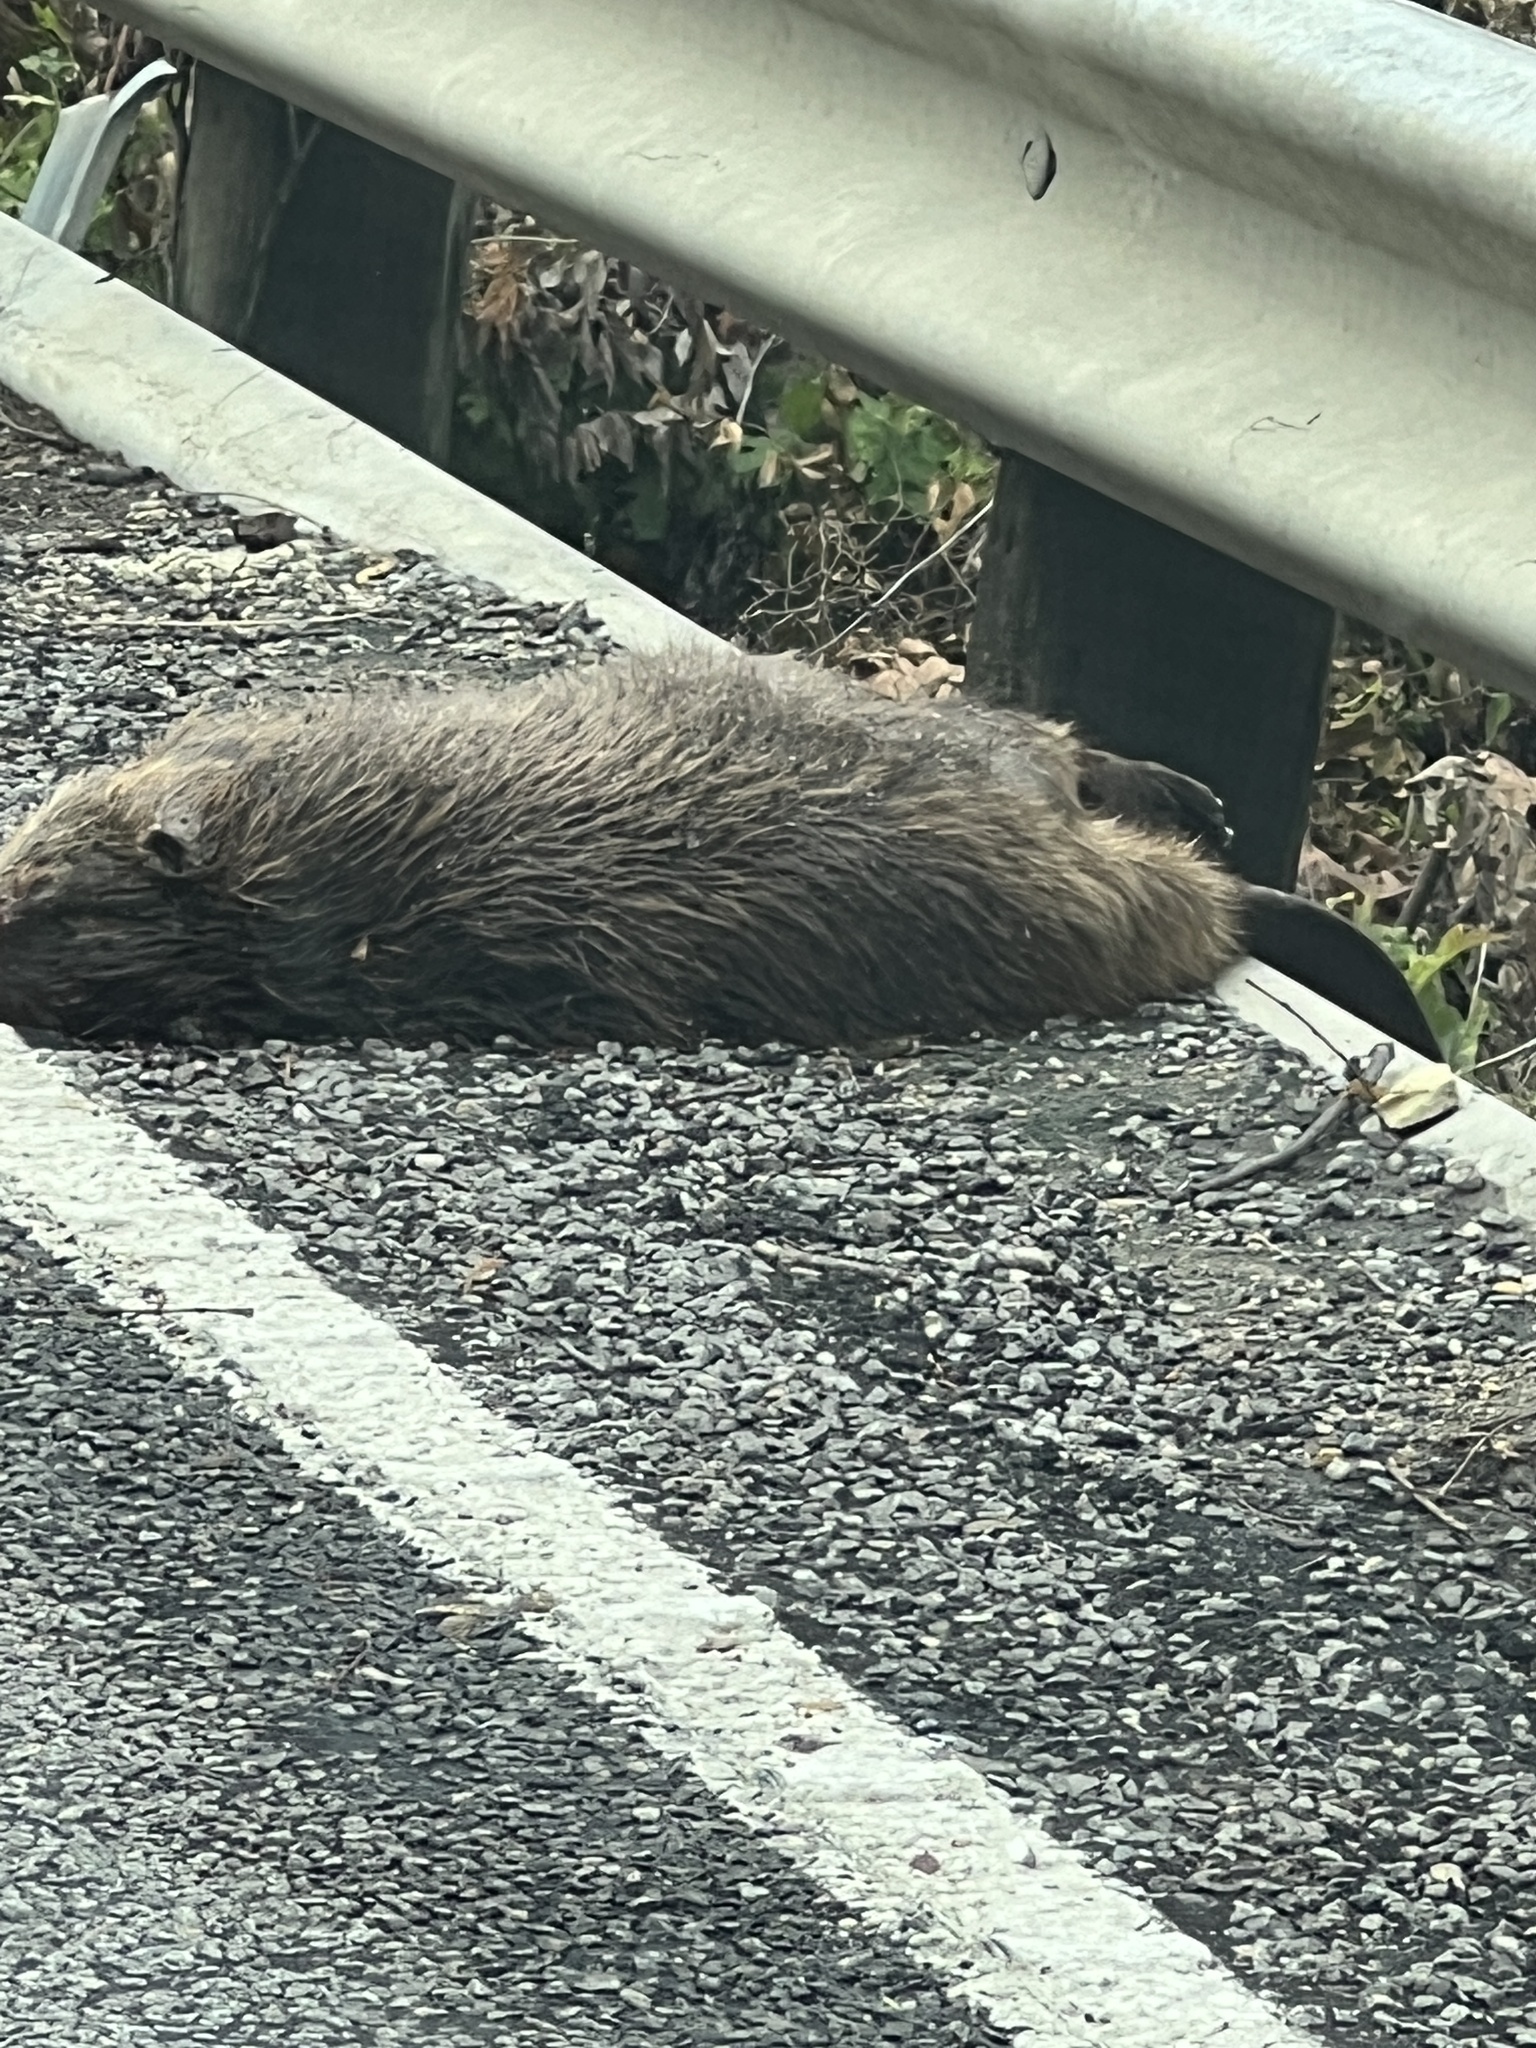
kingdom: Animalia
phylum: Chordata
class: Mammalia
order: Rodentia
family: Castoridae
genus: Castor
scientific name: Castor canadensis
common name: American beaver
